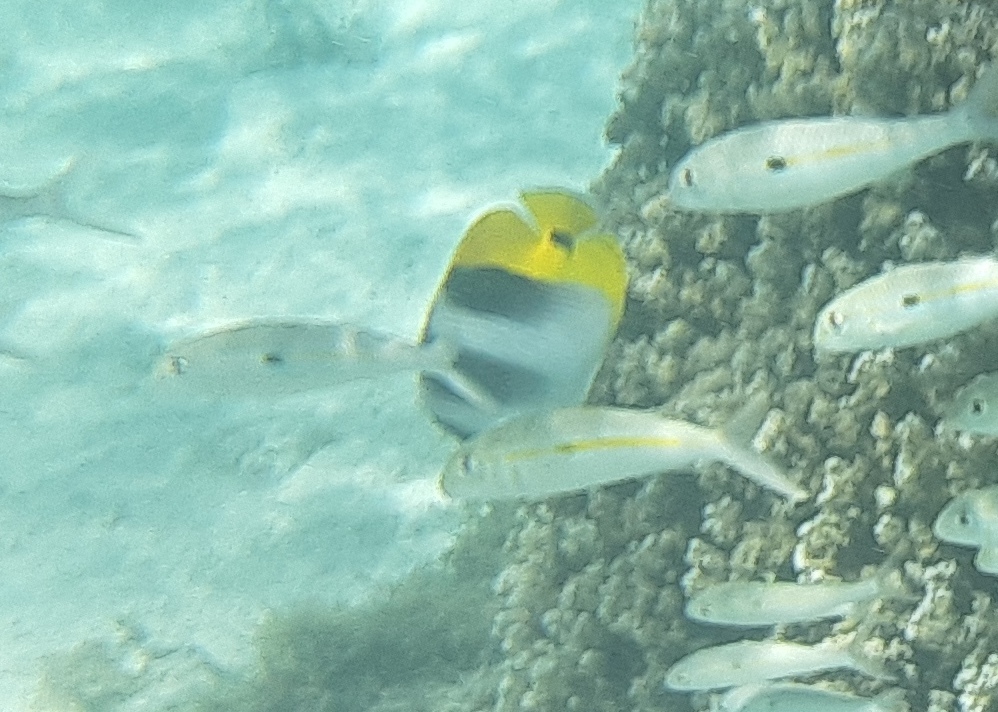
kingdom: Animalia
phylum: Chordata
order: Perciformes
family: Chaetodontidae
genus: Chaetodon
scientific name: Chaetodon ulietensis
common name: Pacific double-saddle butterflyfish
